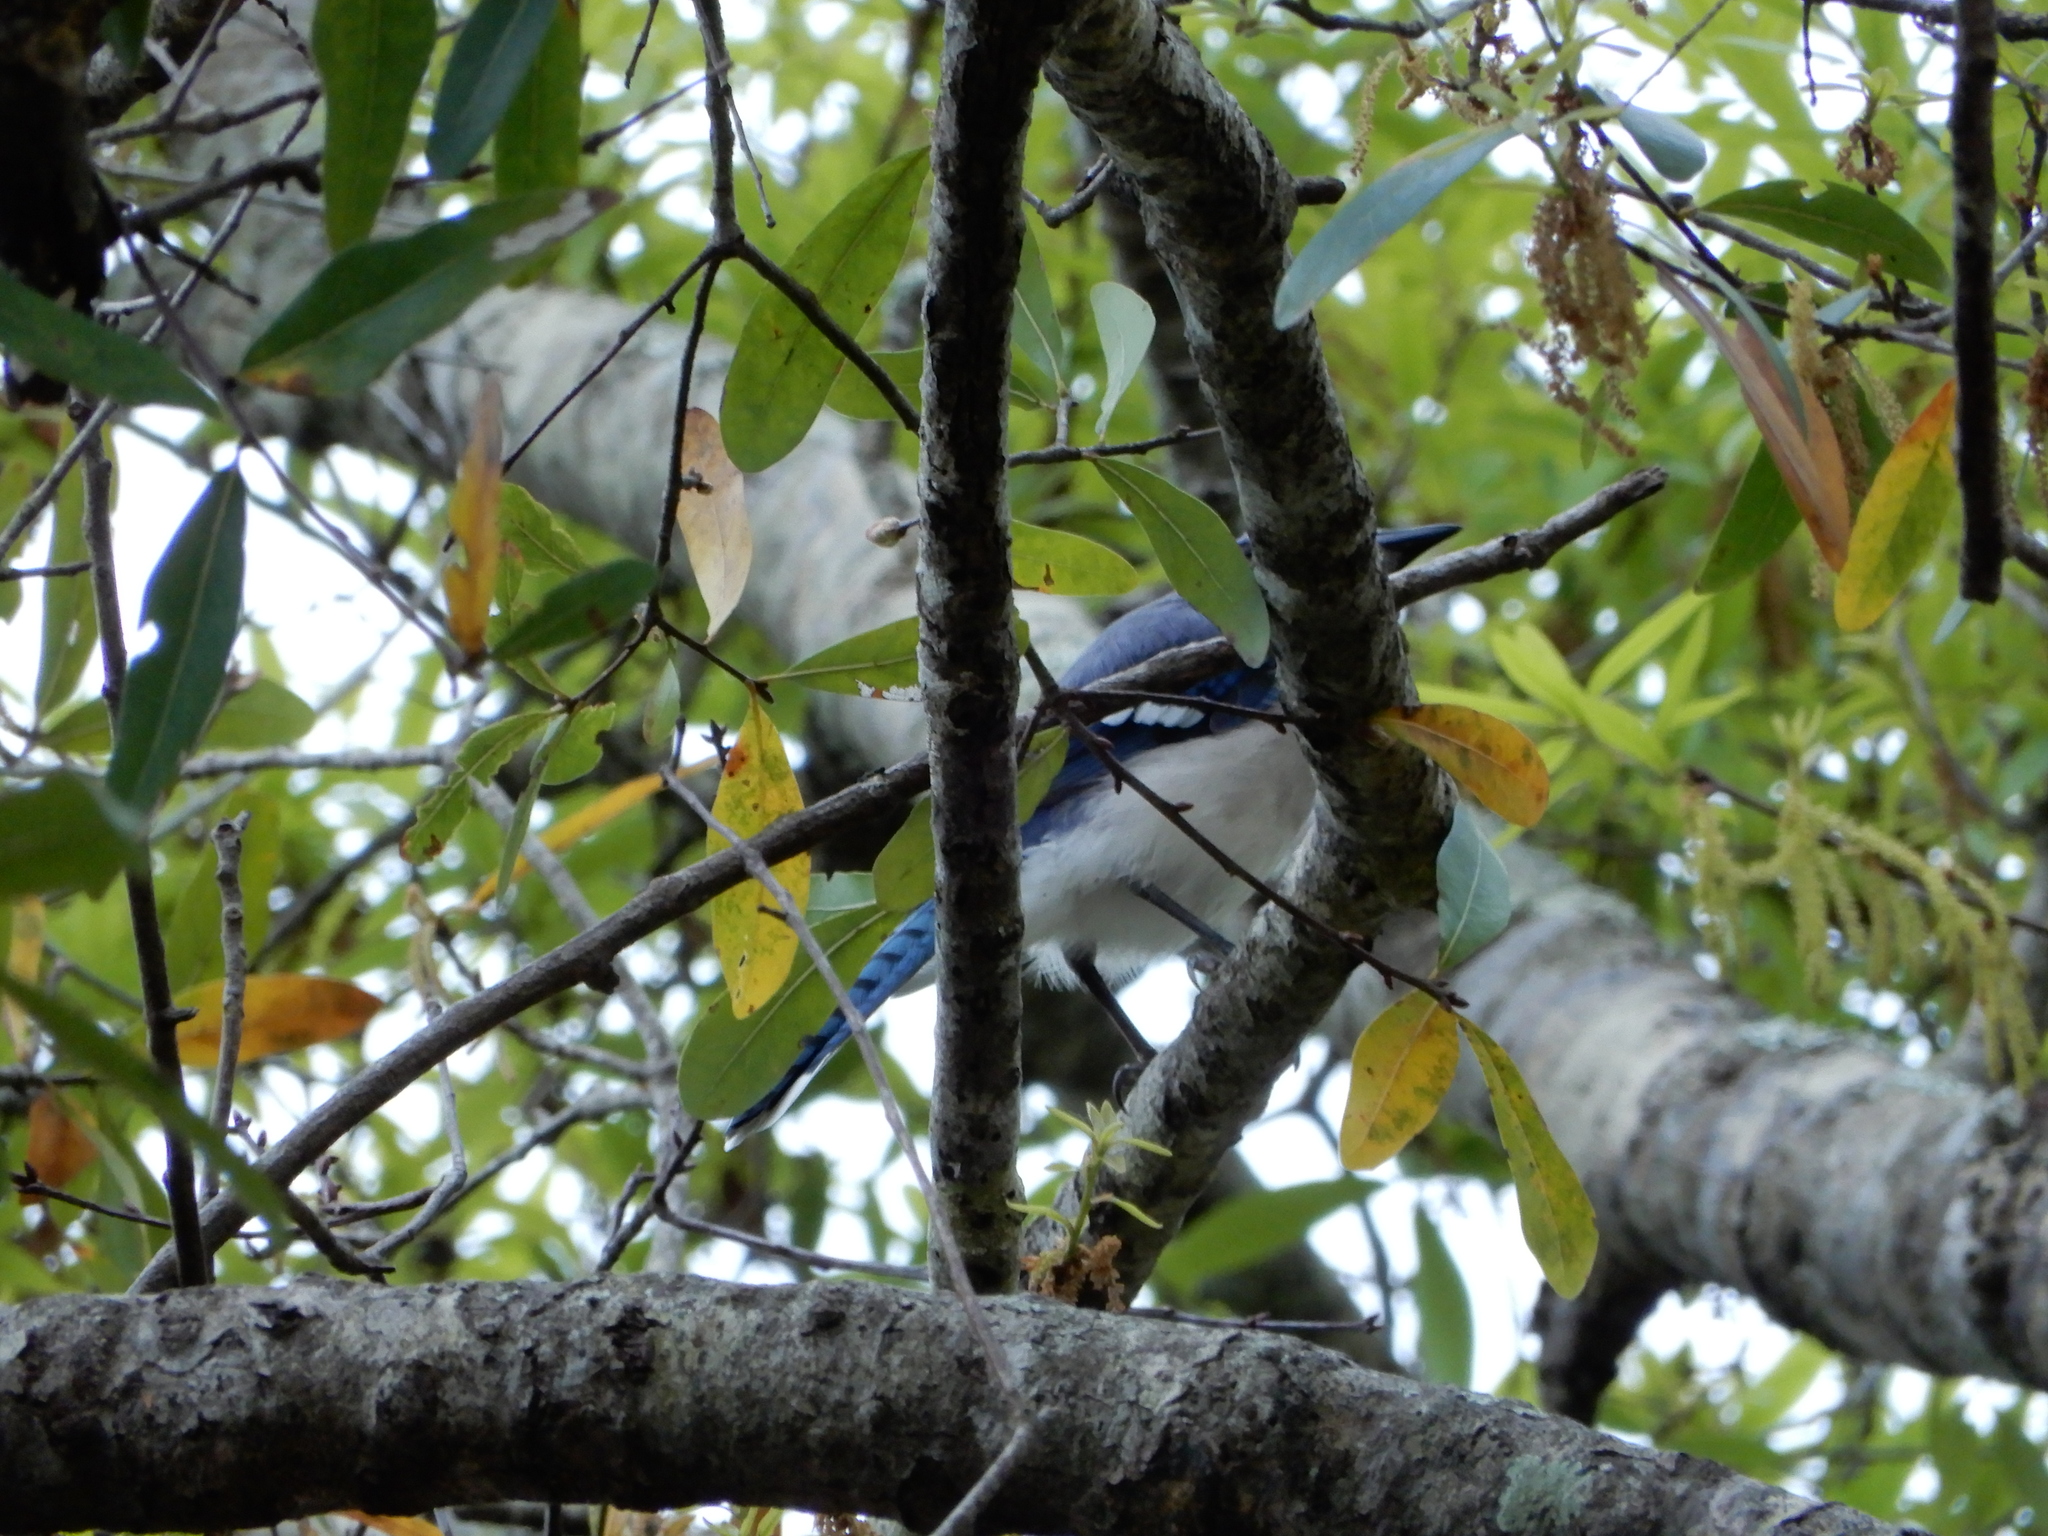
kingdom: Animalia
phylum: Chordata
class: Aves
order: Passeriformes
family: Corvidae
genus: Cyanocitta
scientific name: Cyanocitta cristata
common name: Blue jay
